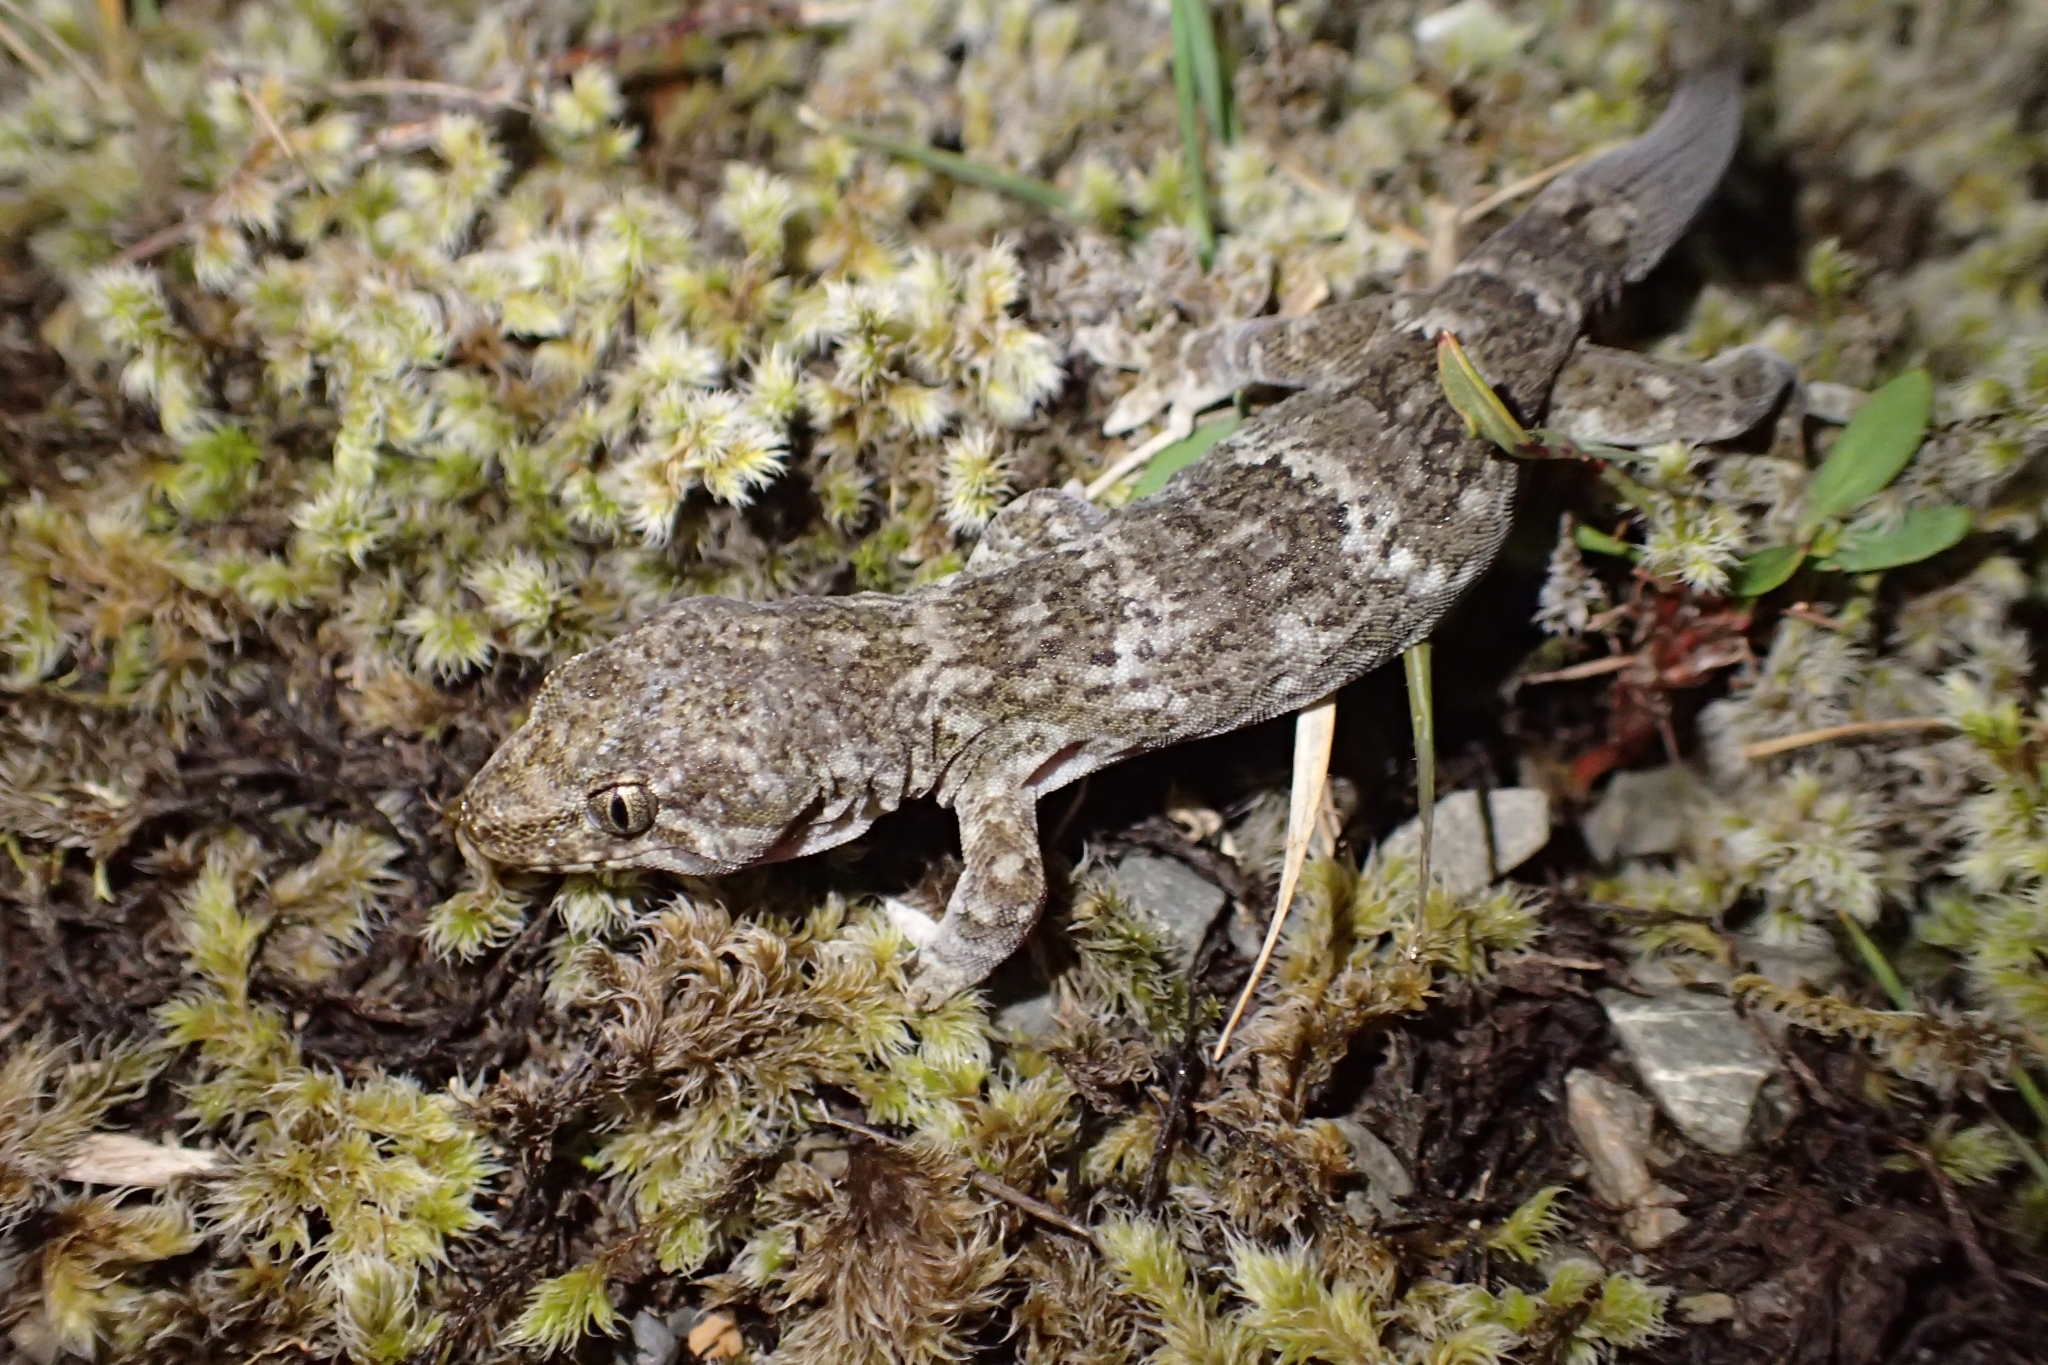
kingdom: Animalia
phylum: Chordata
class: Squamata
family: Diplodactylidae
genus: Woodworthia
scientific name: Woodworthia
